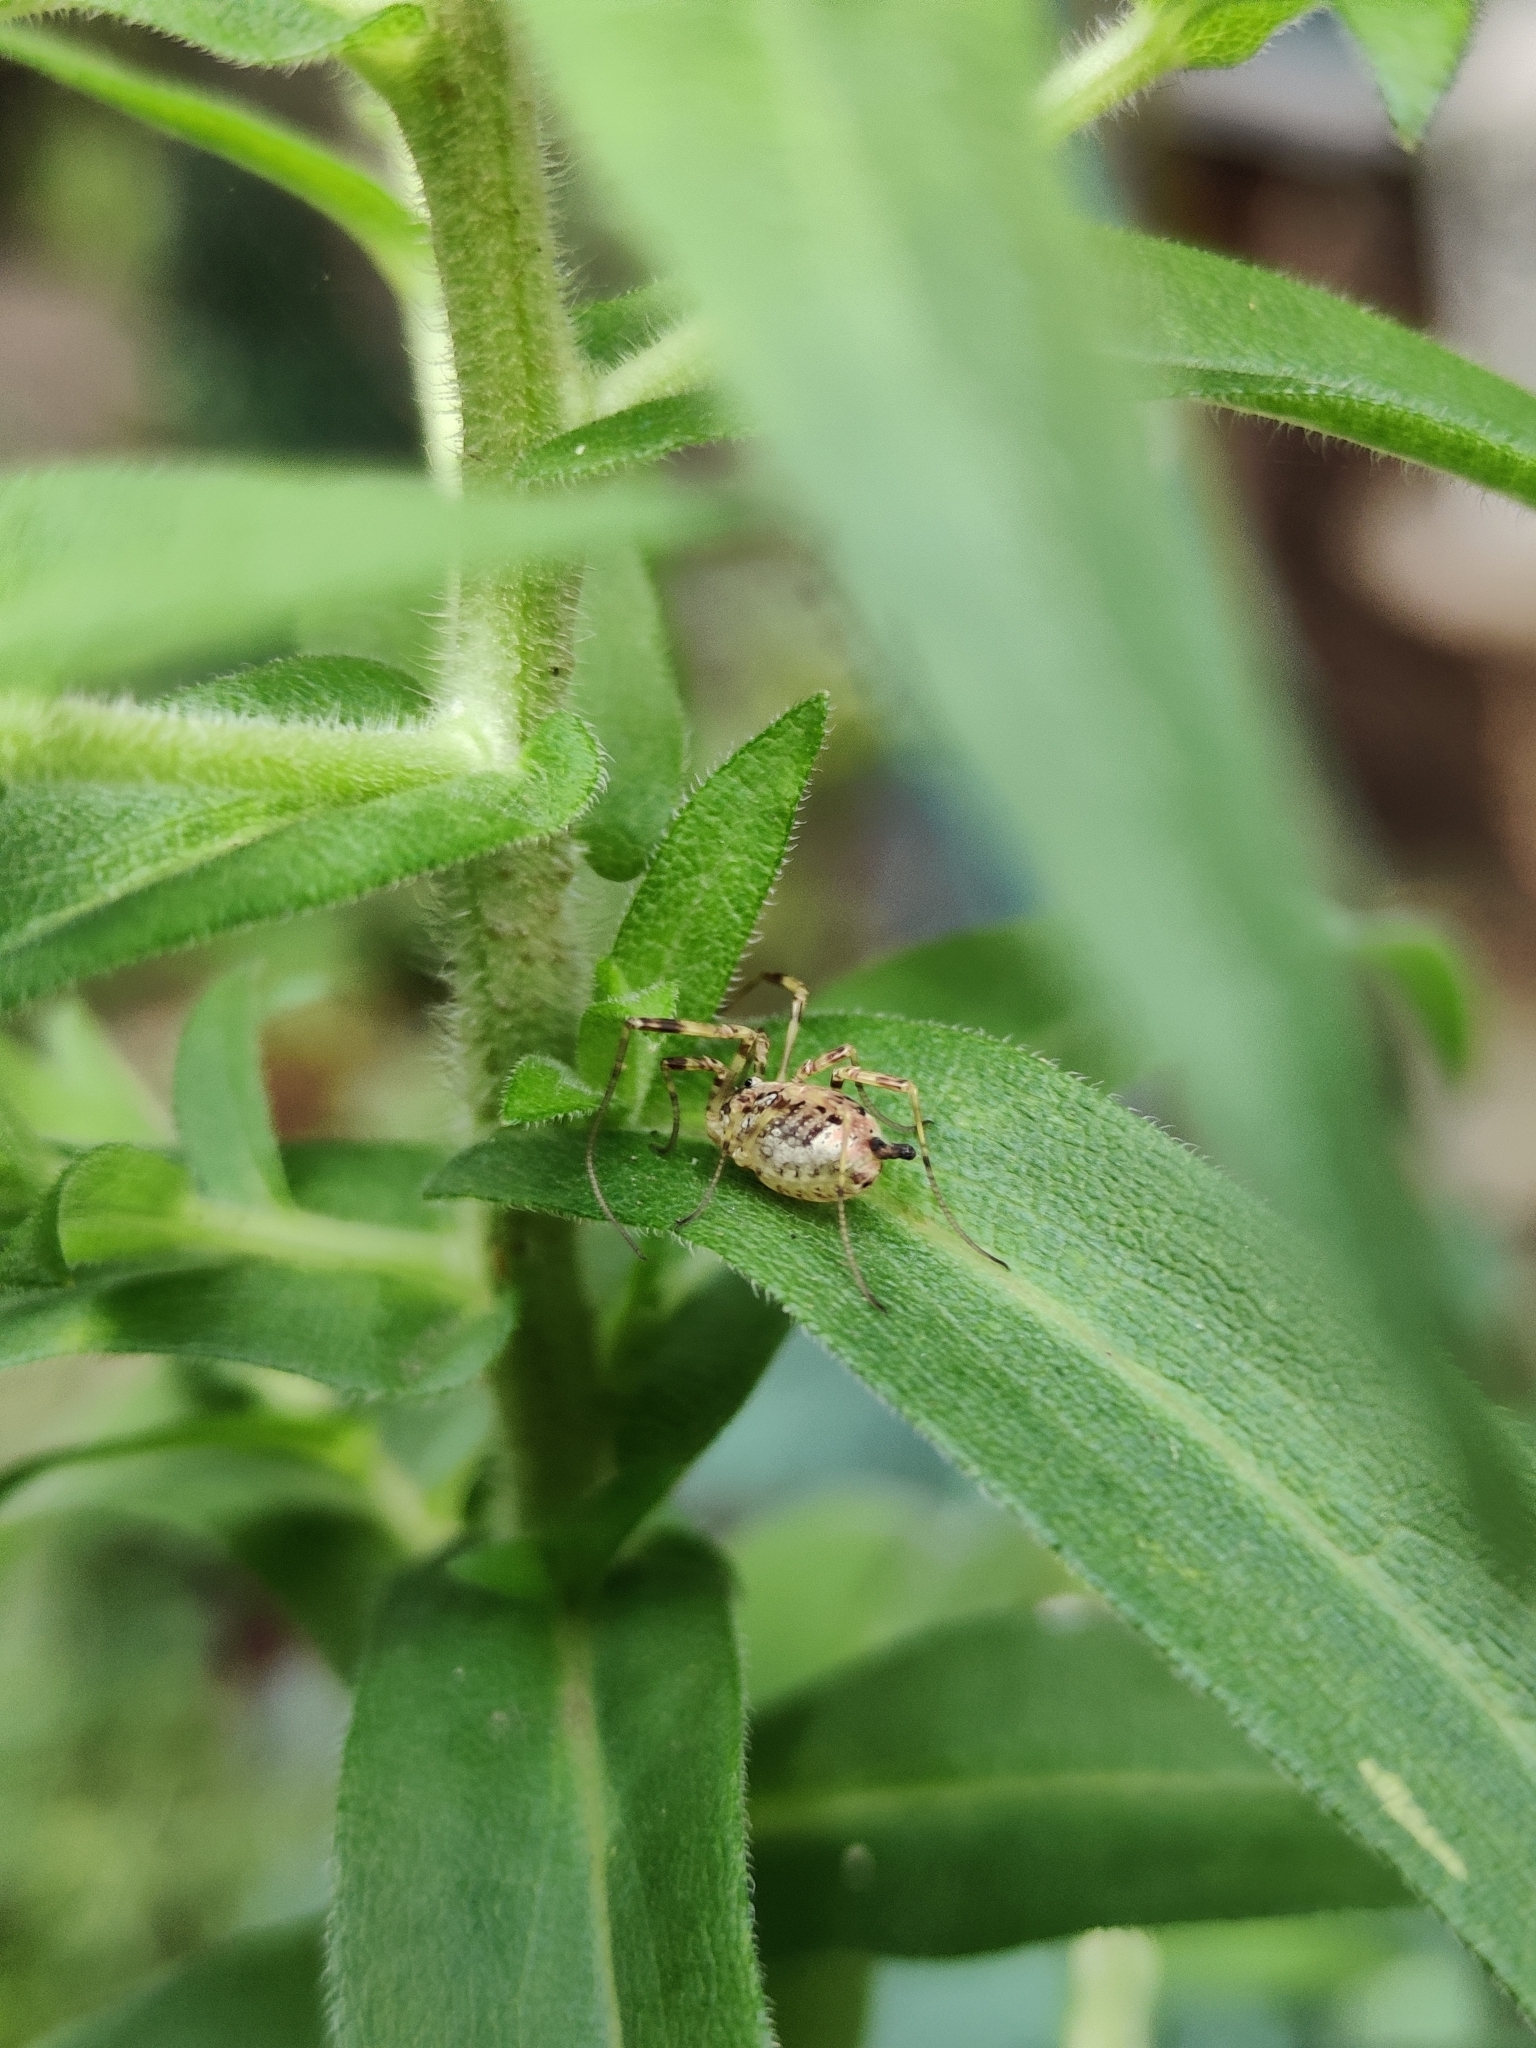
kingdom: Animalia
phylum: Arthropoda
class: Arachnida
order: Opiliones
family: Phalangiidae
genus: Paroligolophus
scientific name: Paroligolophus agrestis
